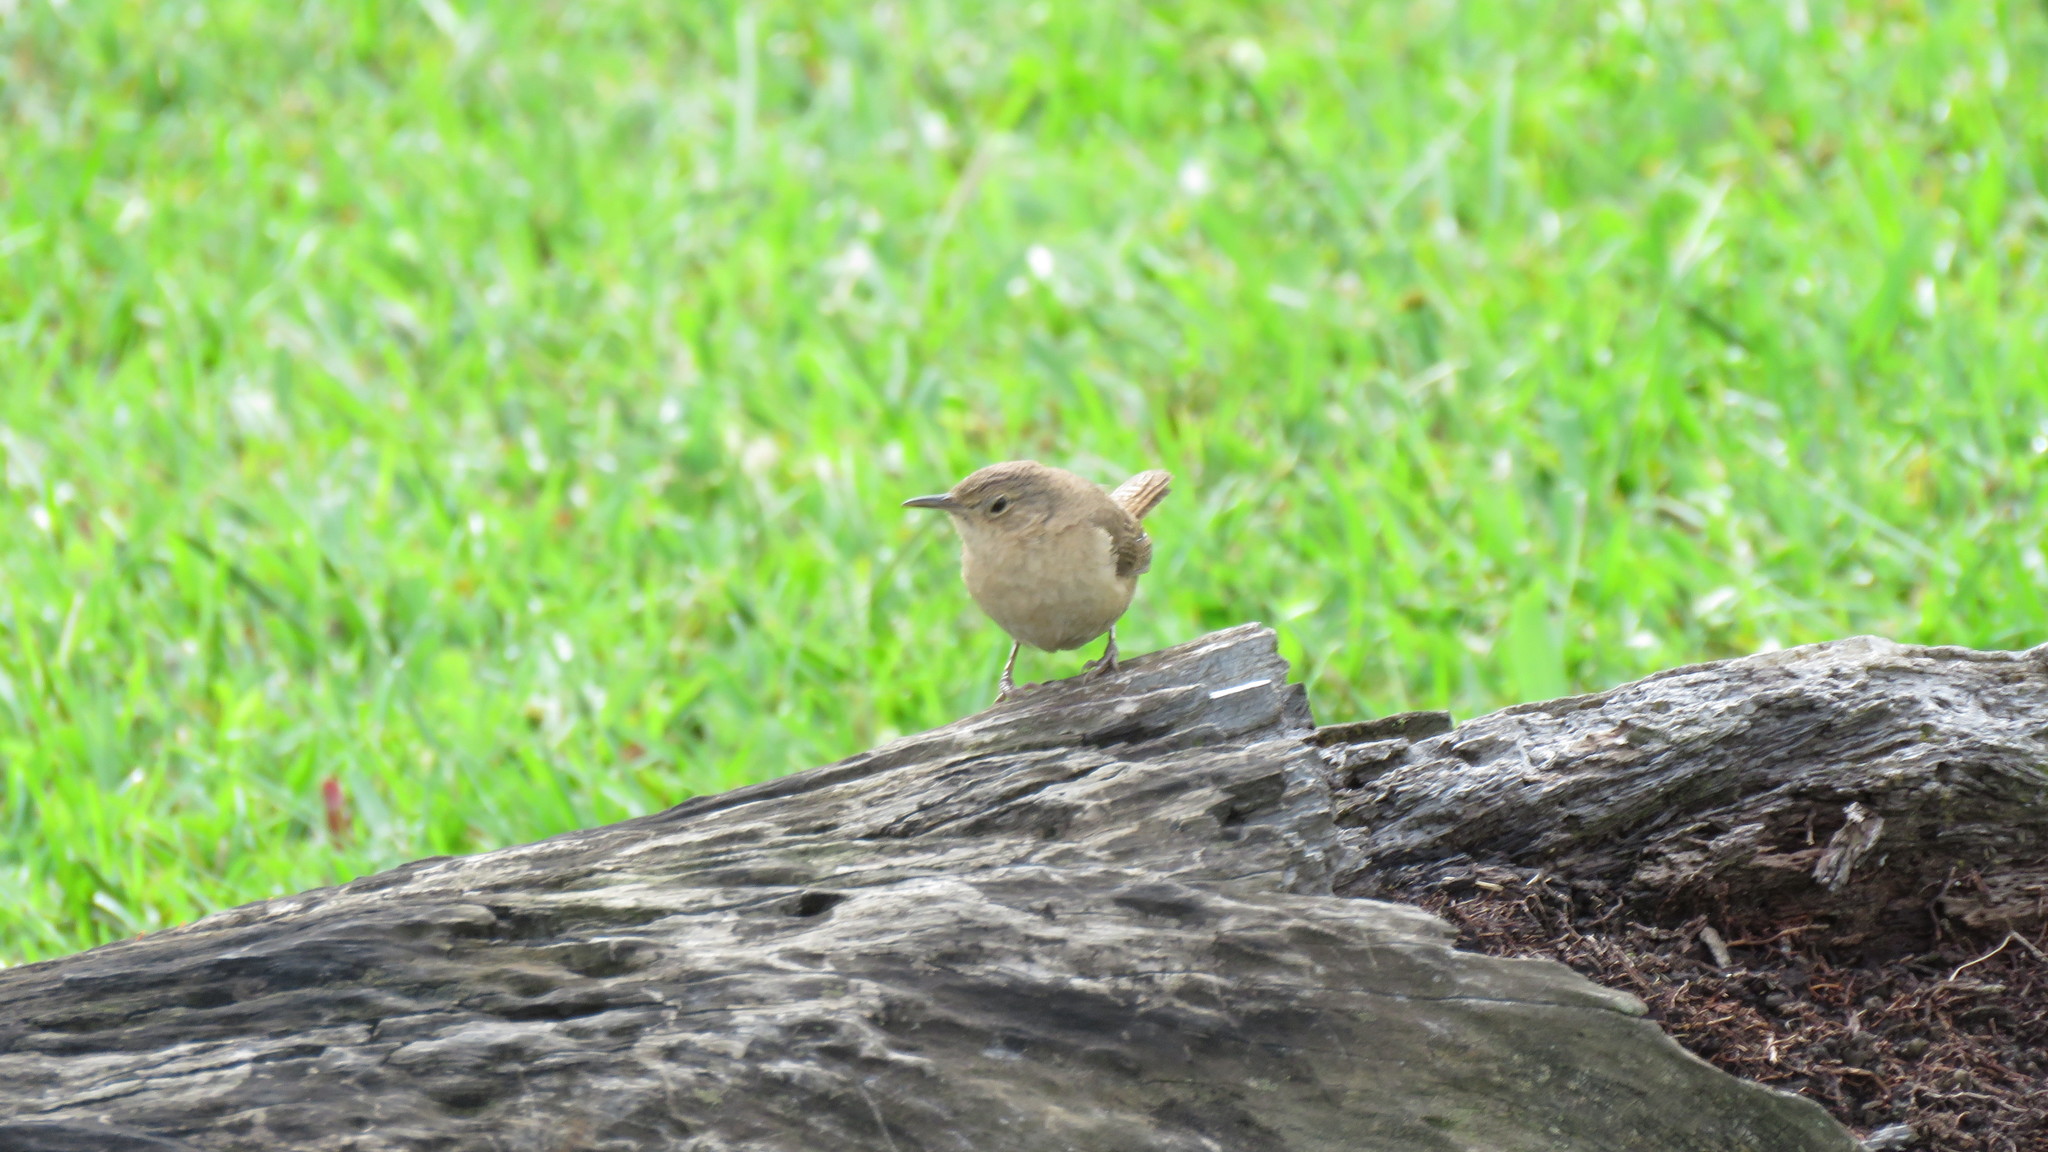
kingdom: Animalia
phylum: Chordata
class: Aves
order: Passeriformes
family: Troglodytidae
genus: Troglodytes
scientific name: Troglodytes aedon
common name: House wren
